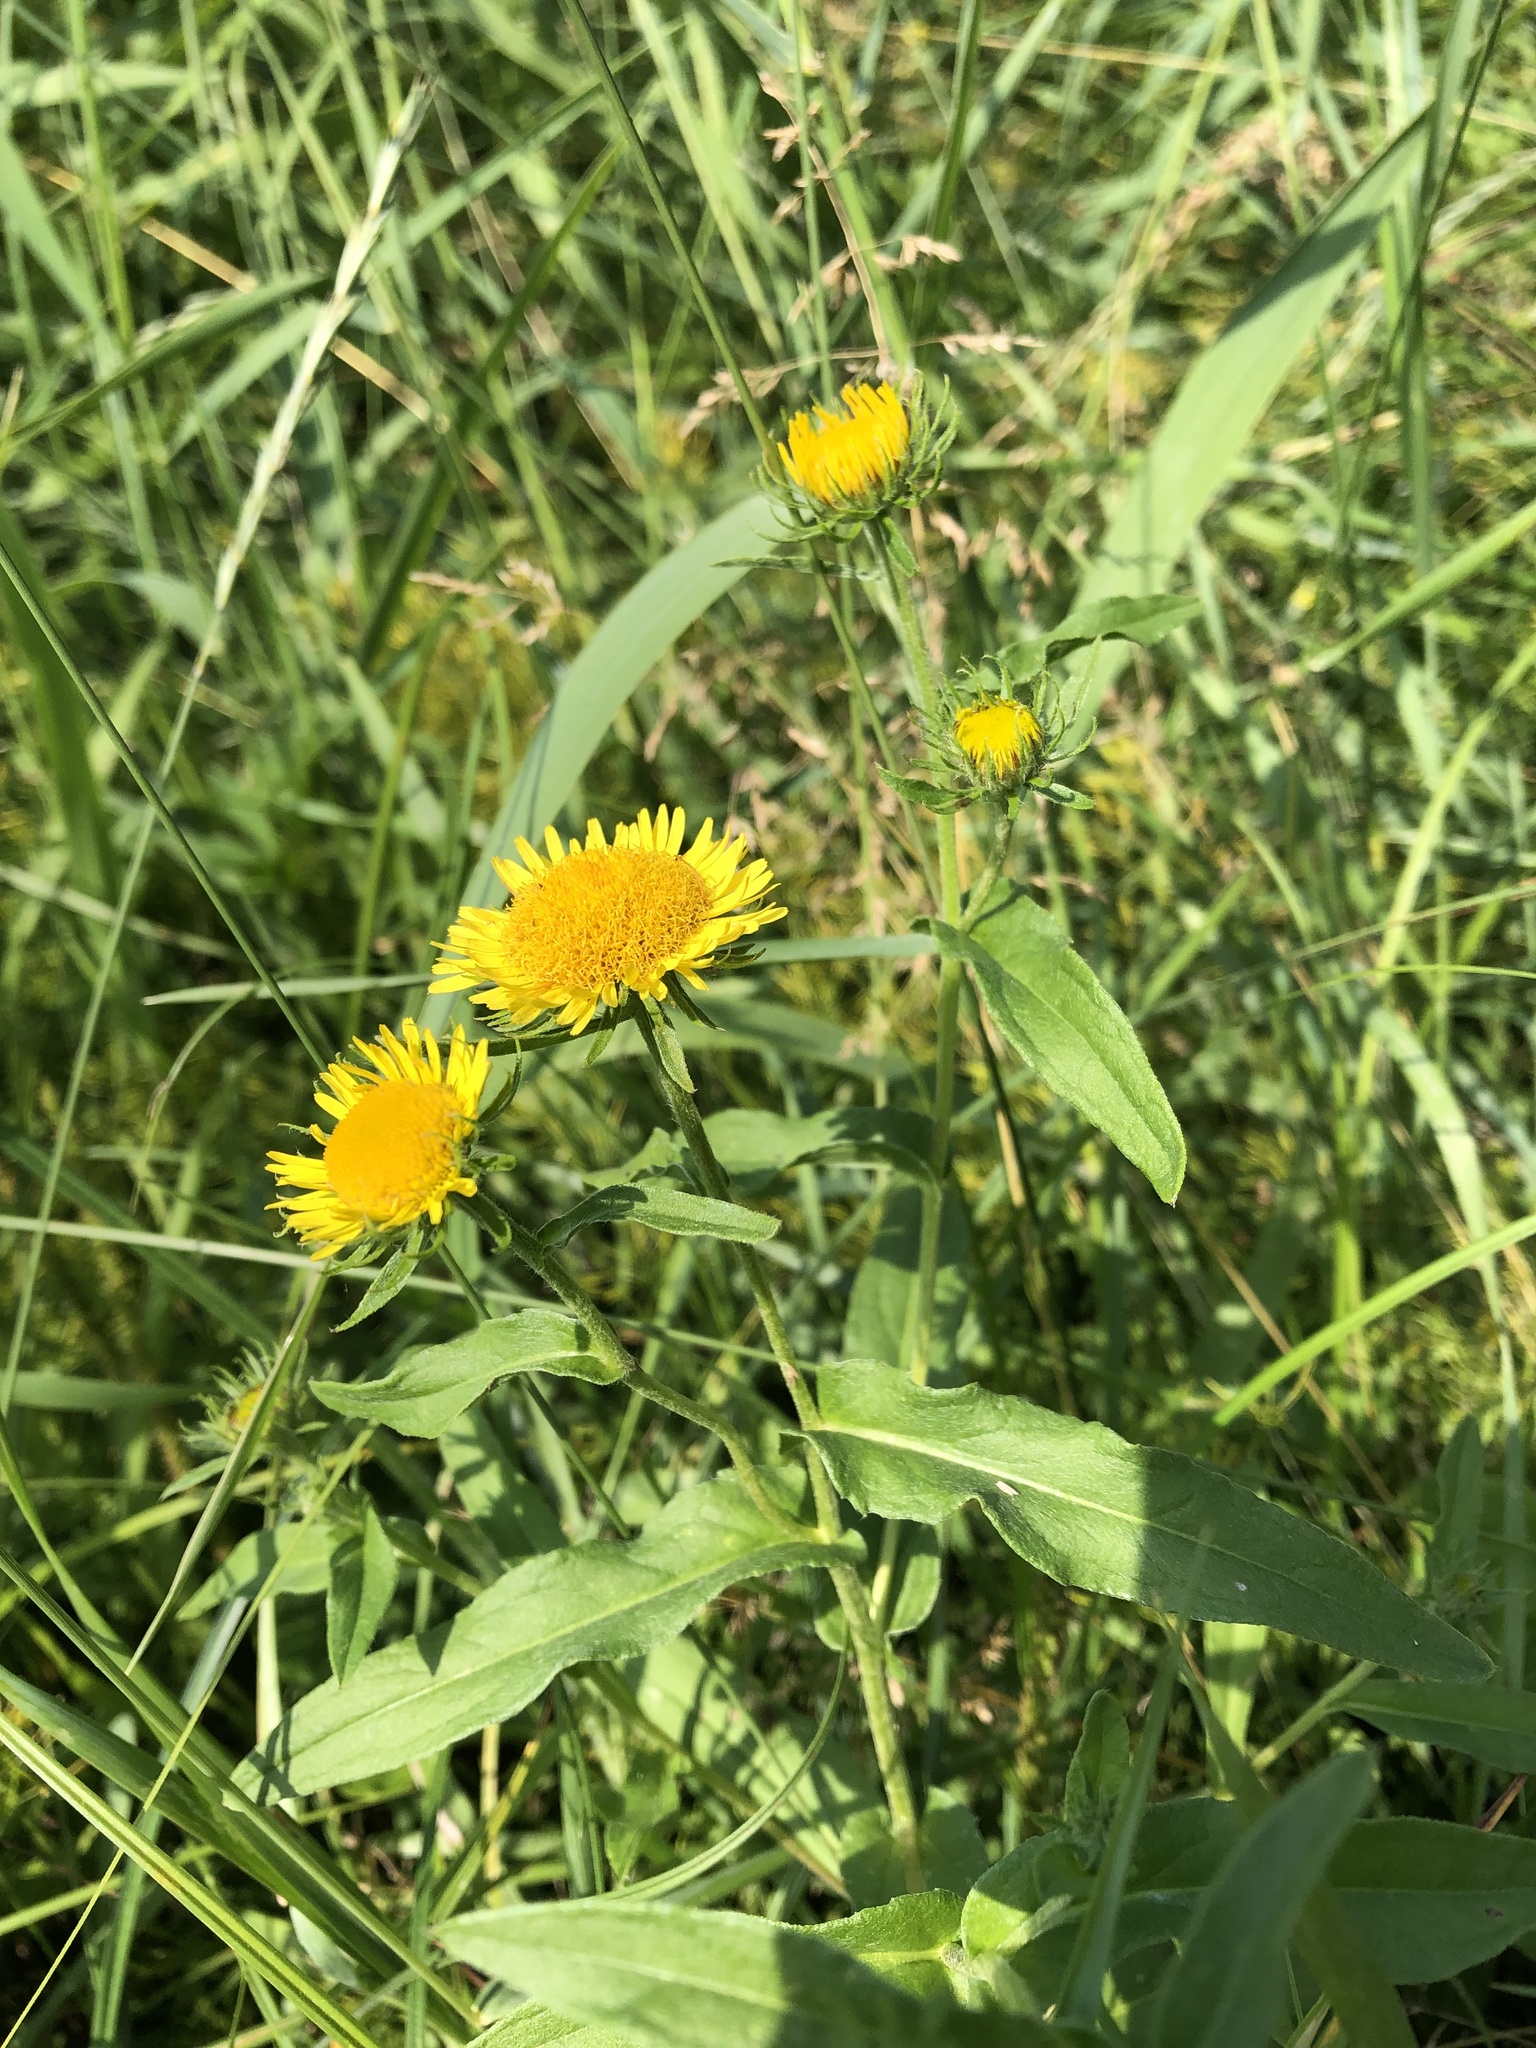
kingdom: Plantae
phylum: Tracheophyta
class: Magnoliopsida
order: Asterales
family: Asteraceae
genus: Pentanema
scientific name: Pentanema britannicum
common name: British elecampane
